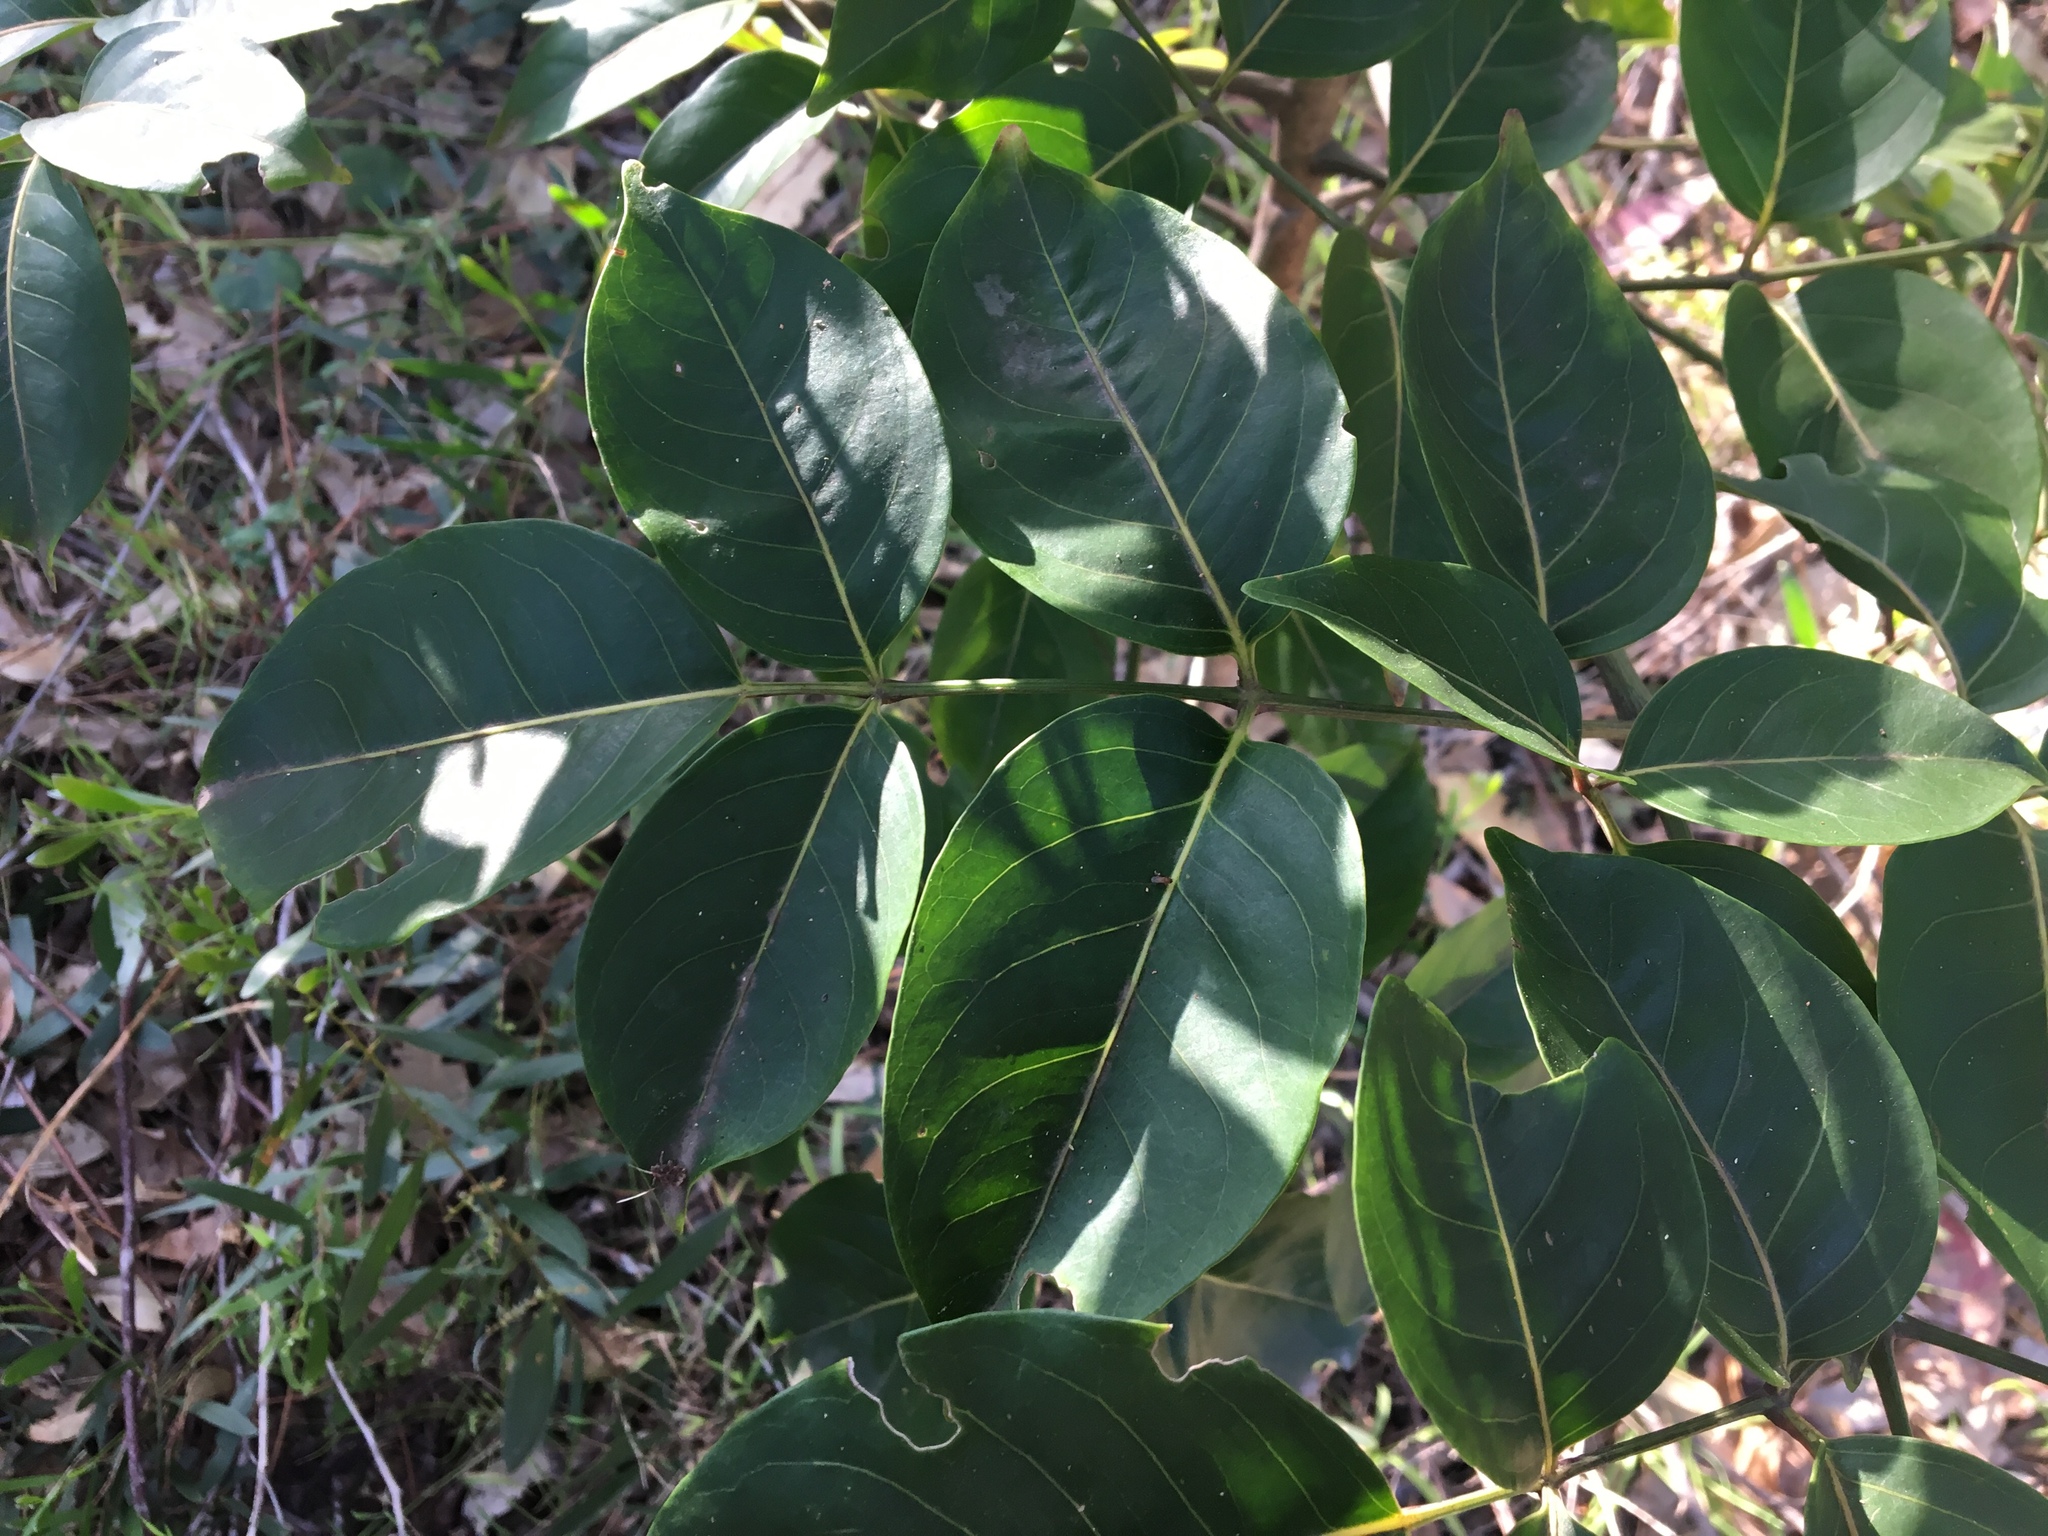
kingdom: Plantae
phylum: Tracheophyta
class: Magnoliopsida
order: Apiales
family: Araliaceae
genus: Polyscias
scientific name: Polyscias elegans
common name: Mowbulan whitewood
